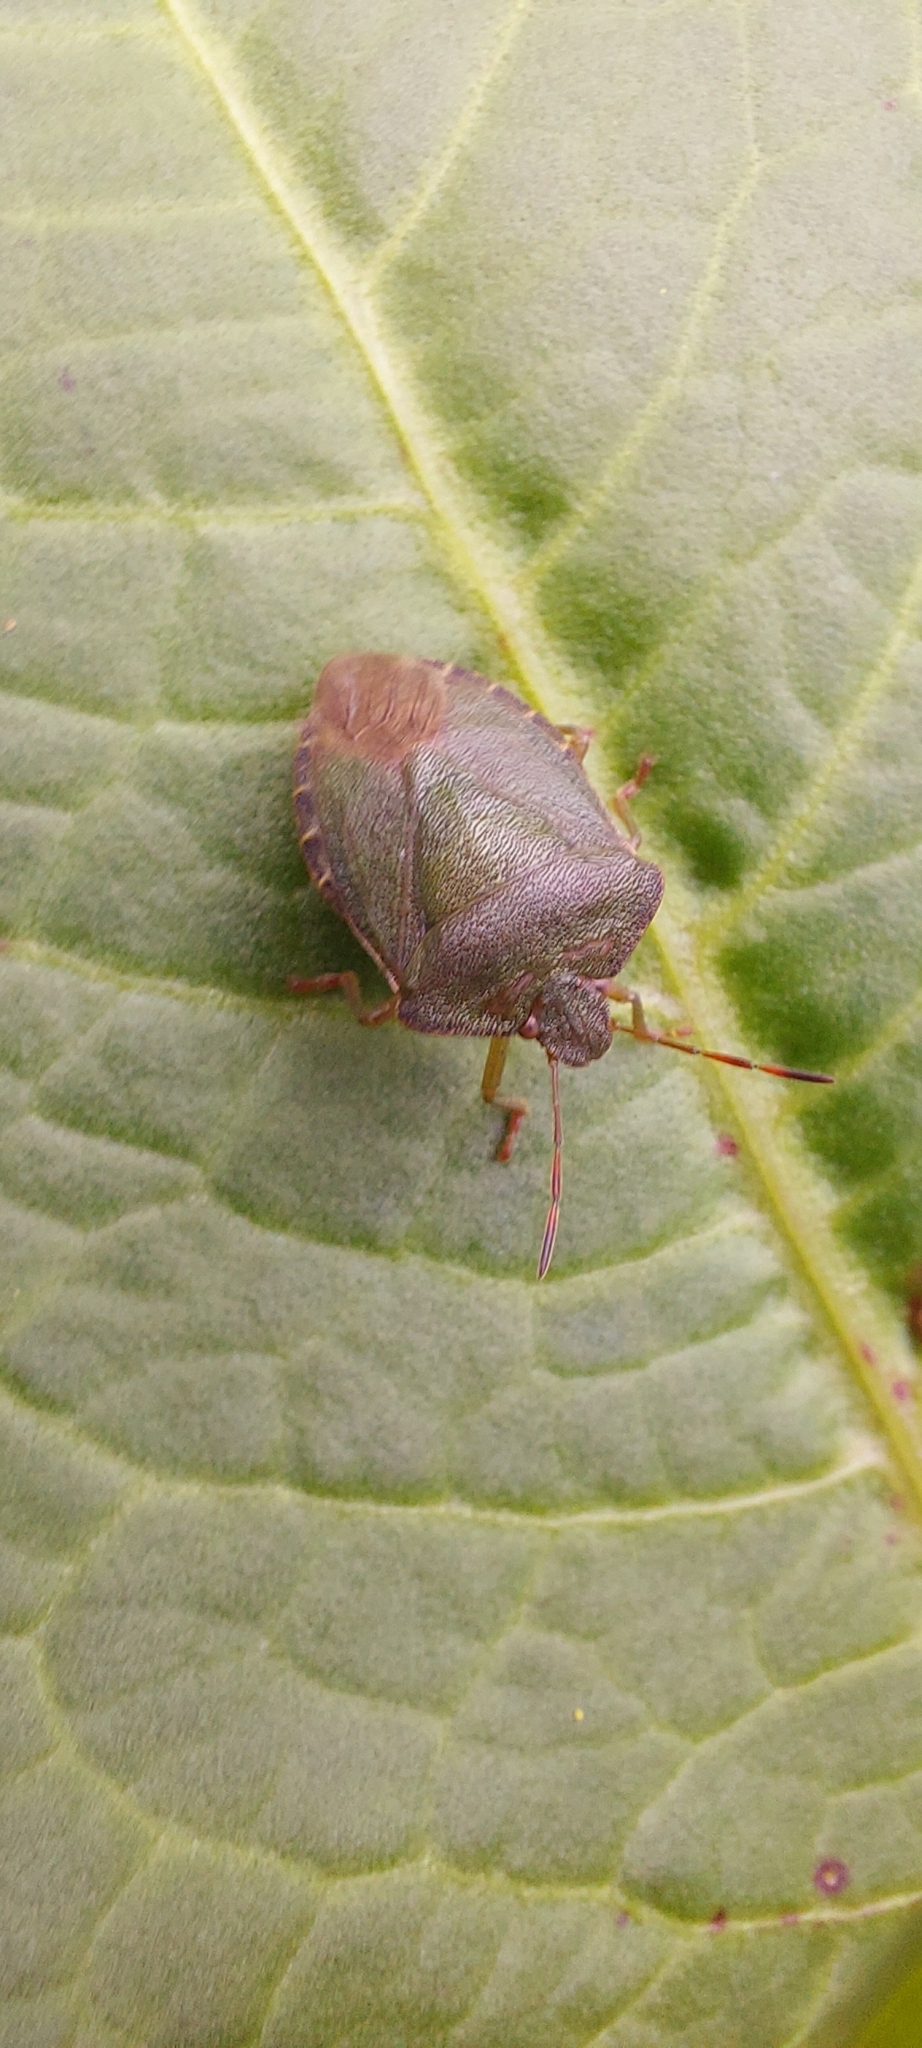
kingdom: Animalia
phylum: Arthropoda
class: Insecta
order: Hemiptera
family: Pentatomidae
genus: Palomena
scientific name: Palomena prasina
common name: Green shieldbug
